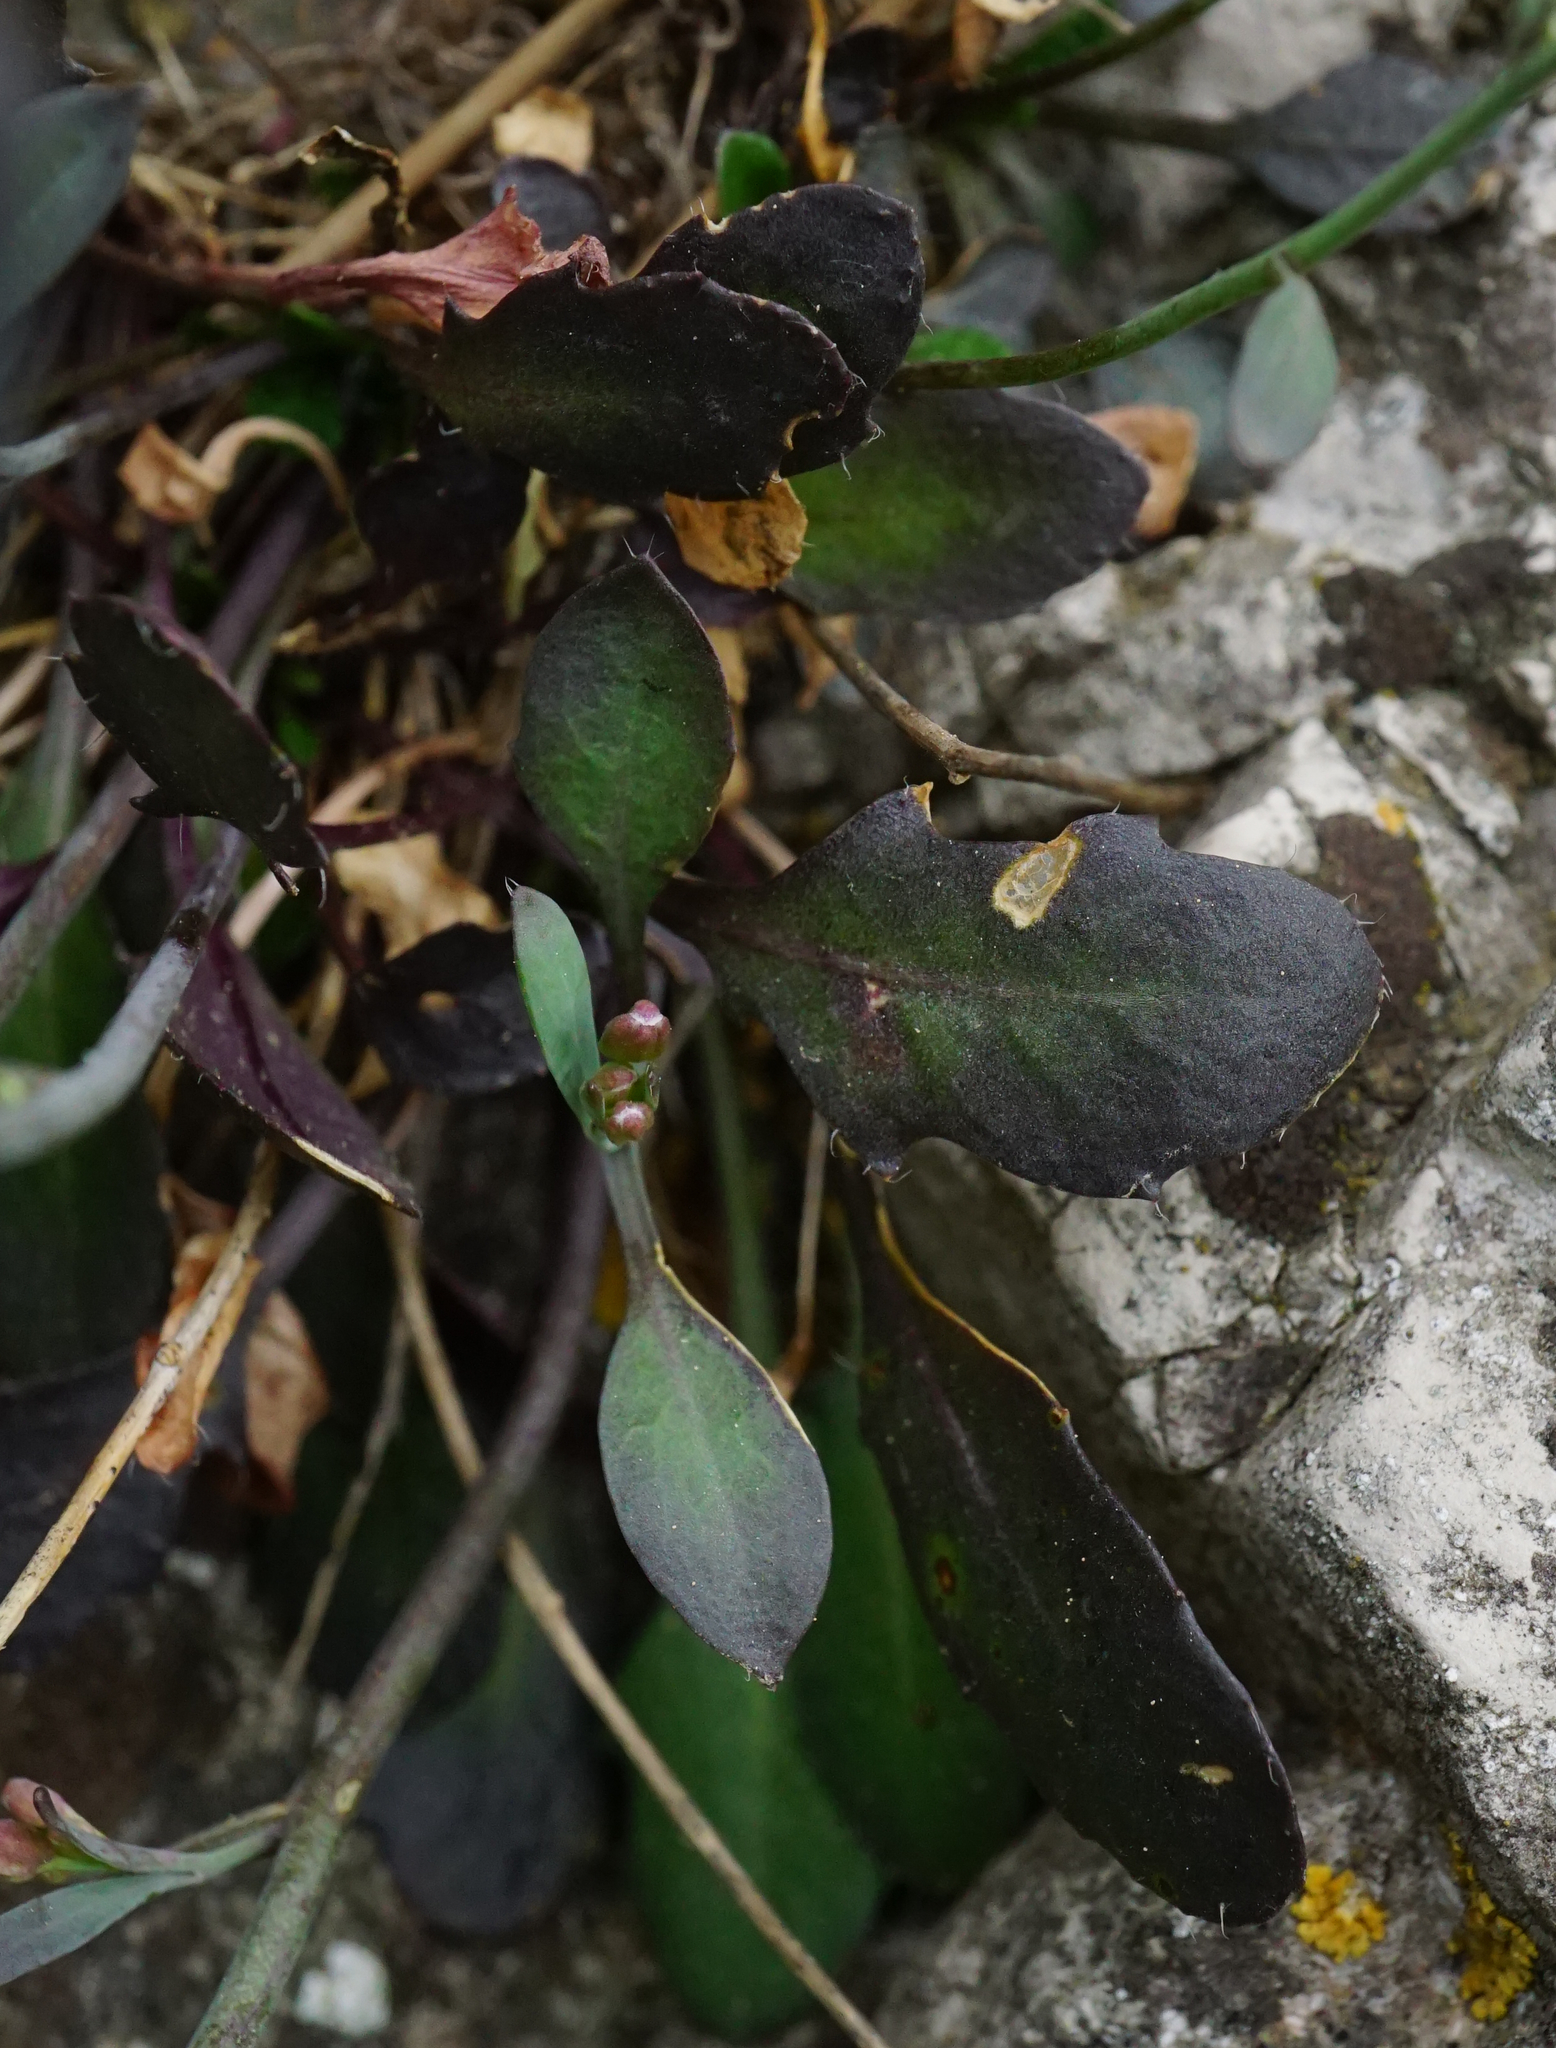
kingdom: Plantae
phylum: Tracheophyta
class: Magnoliopsida
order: Brassicales
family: Brassicaceae
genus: Arabidopsis
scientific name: Arabidopsis lyrata
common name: Lyrate rockcress
